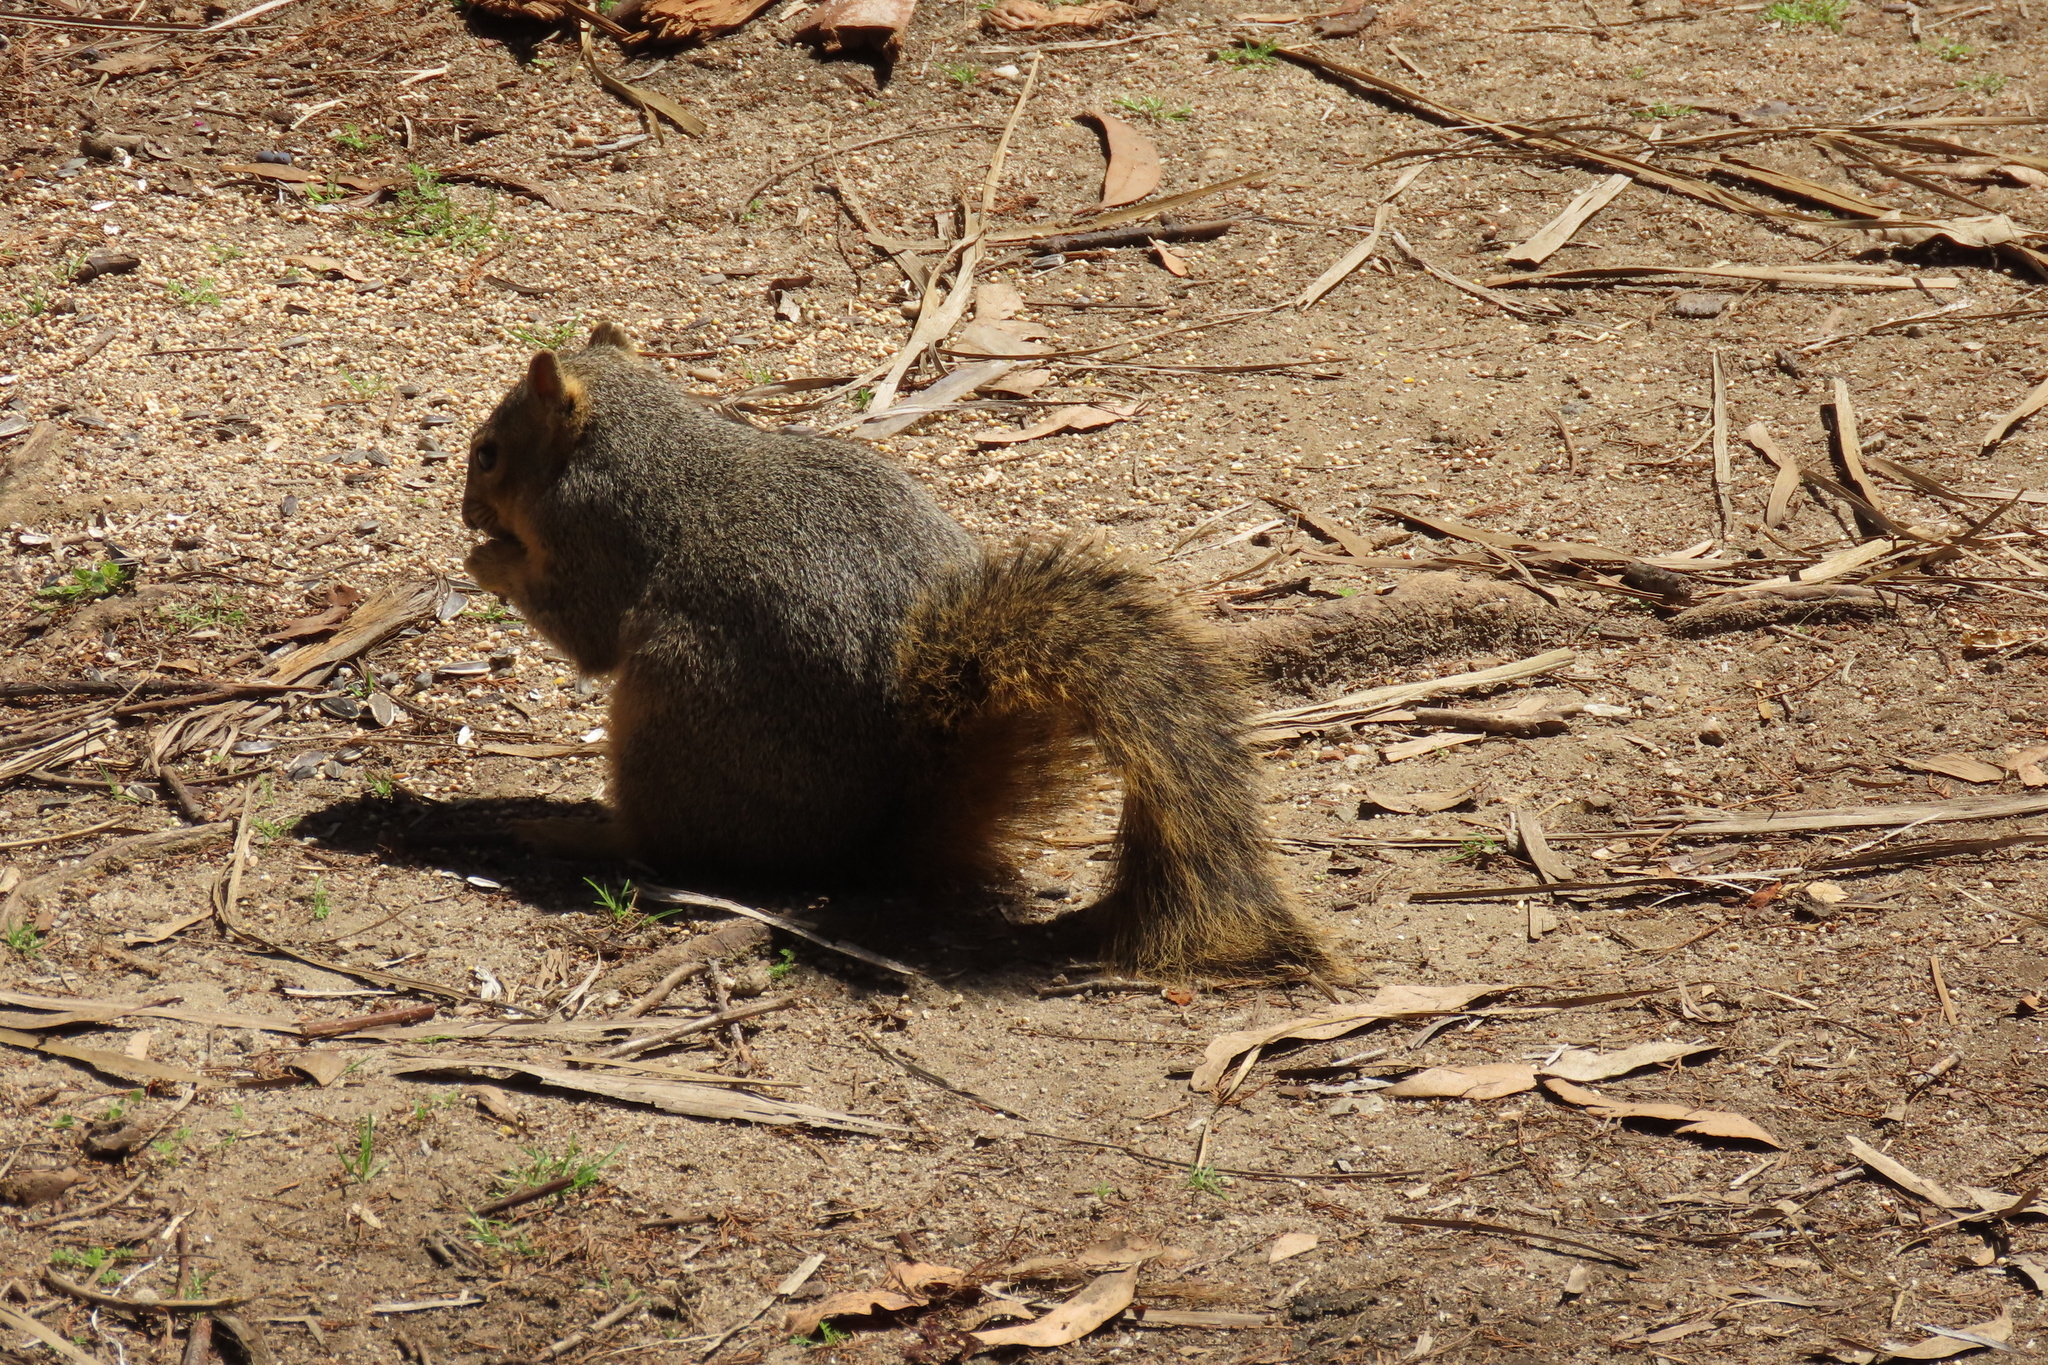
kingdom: Animalia
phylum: Chordata
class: Mammalia
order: Rodentia
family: Sciuridae
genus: Sciurus
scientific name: Sciurus niger
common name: Fox squirrel
